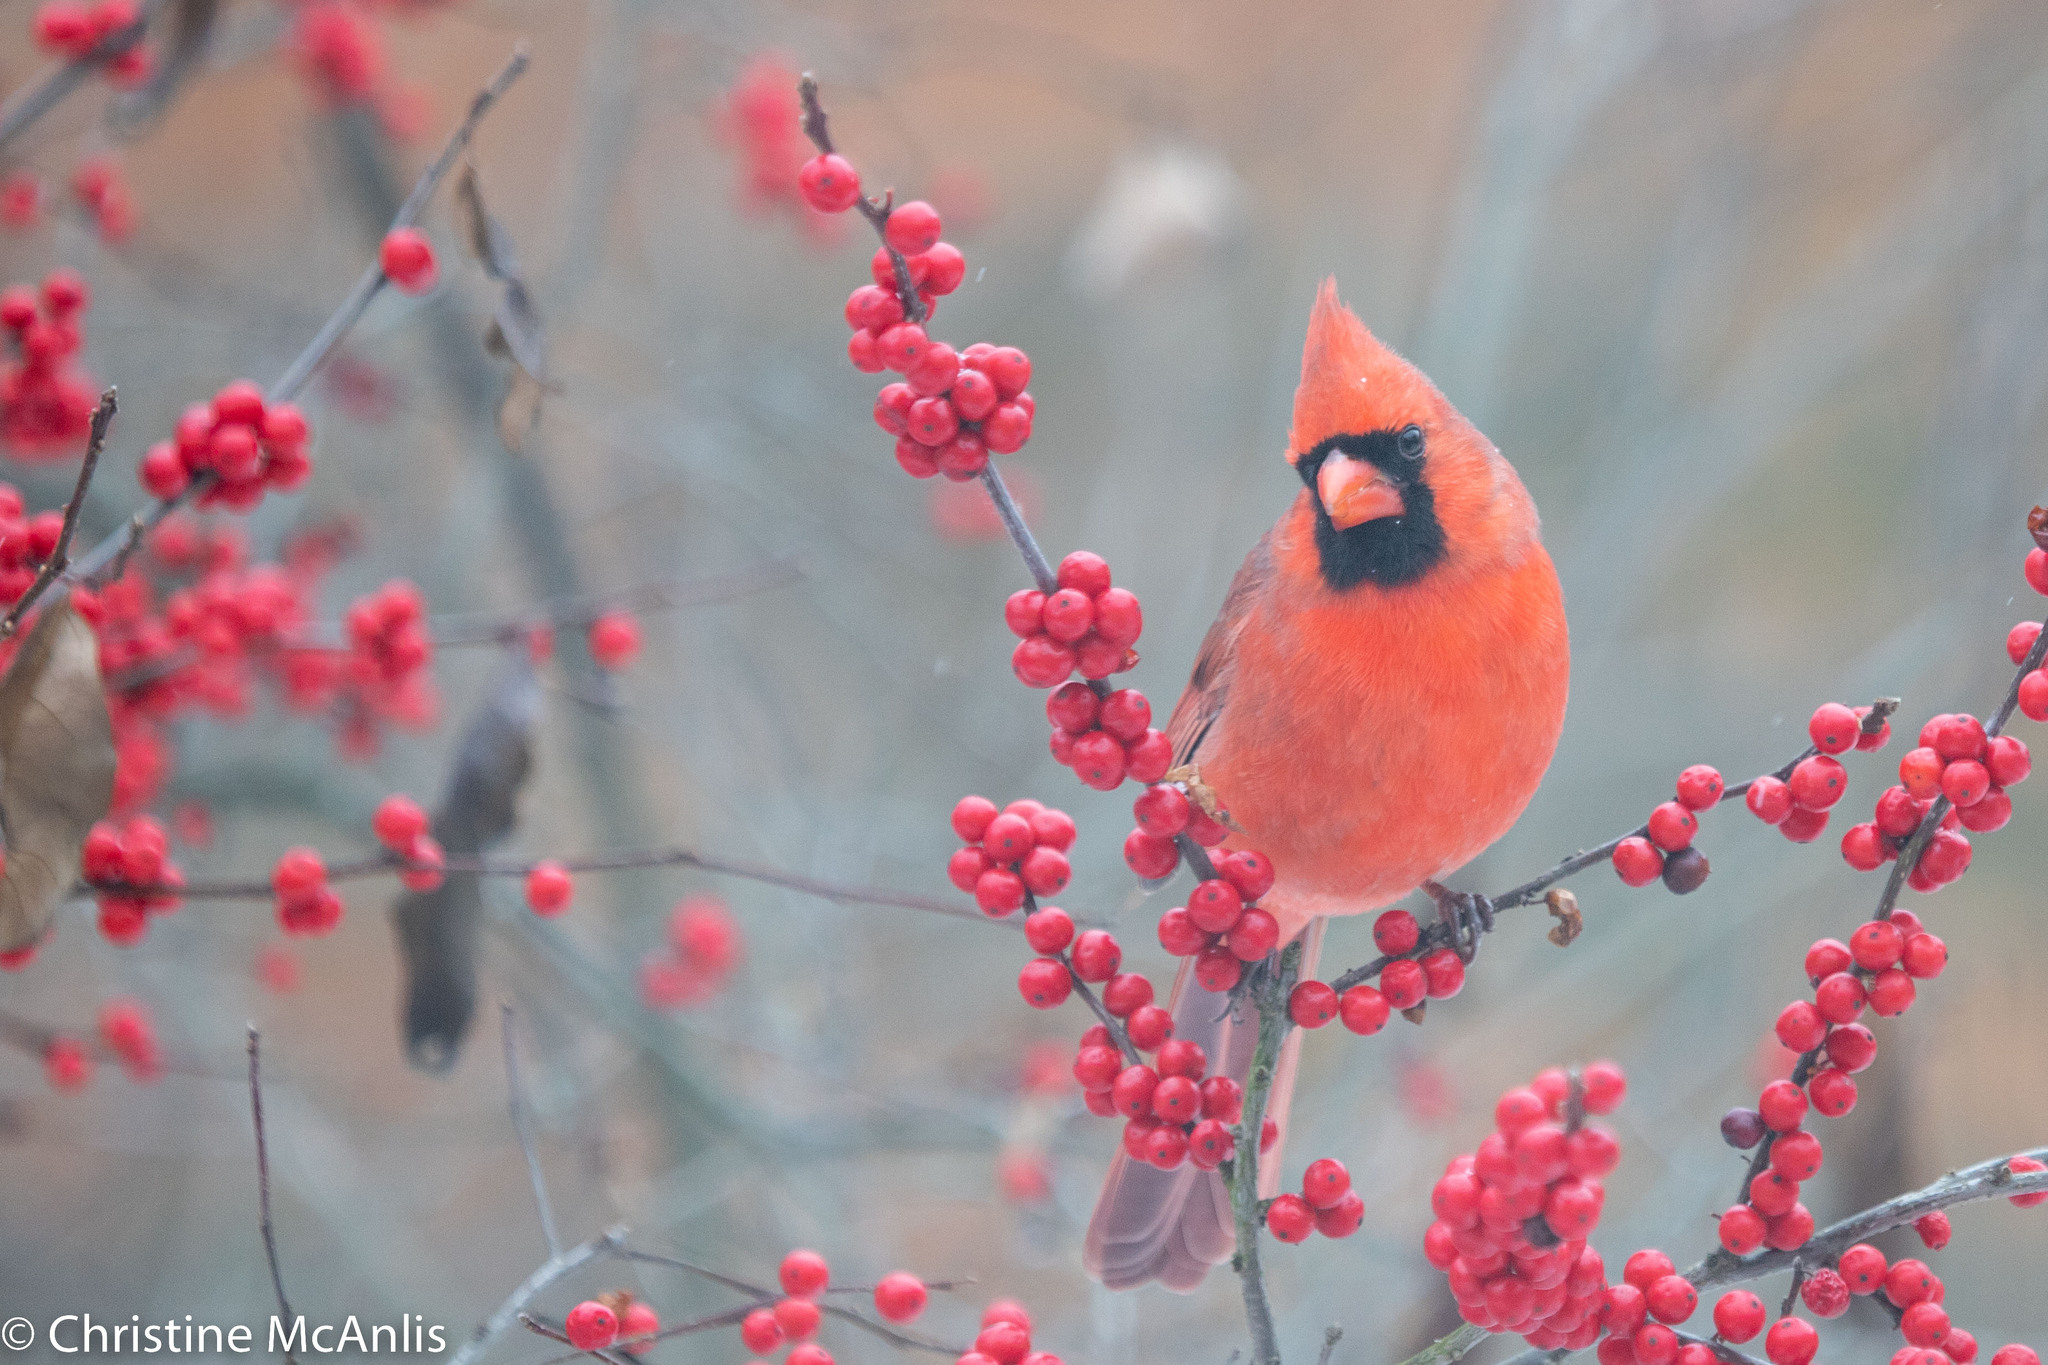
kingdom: Animalia
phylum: Chordata
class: Aves
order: Passeriformes
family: Cardinalidae
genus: Cardinalis
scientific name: Cardinalis cardinalis
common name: Northern cardinal
